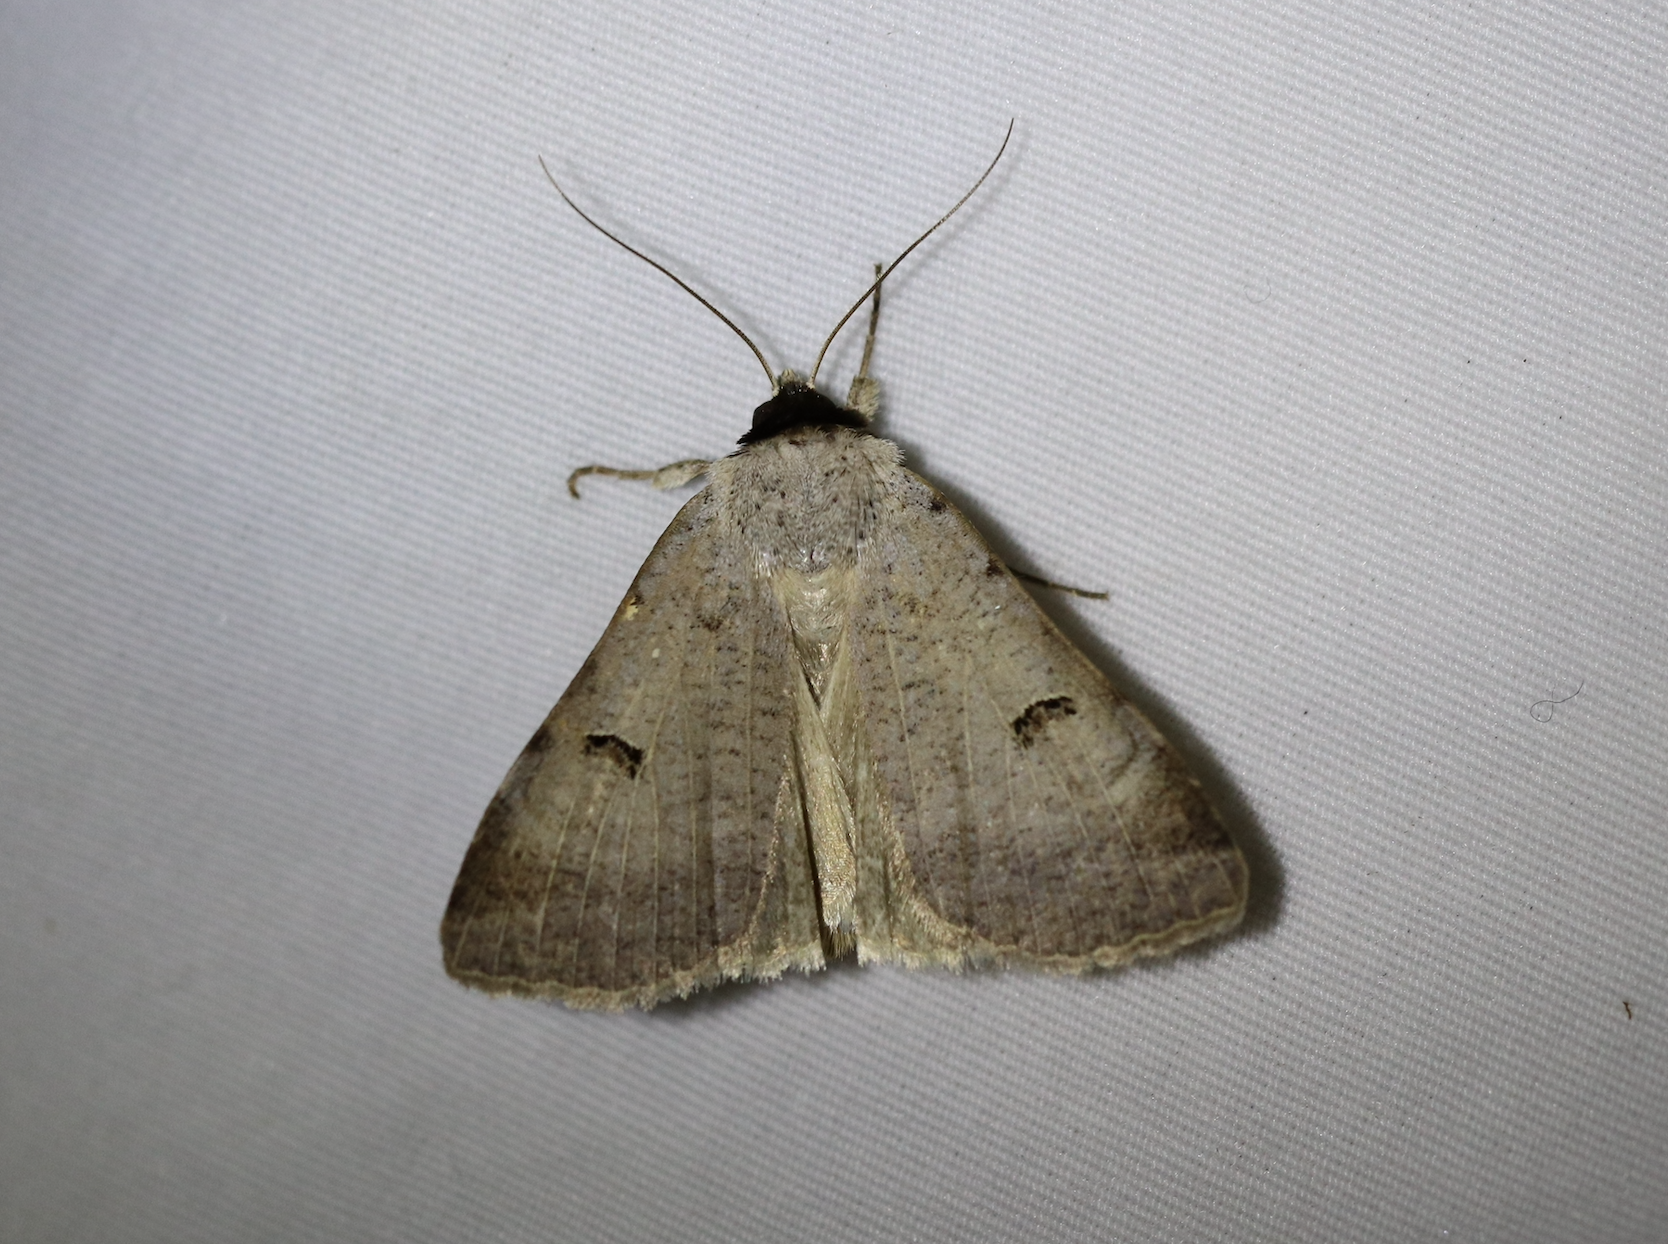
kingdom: Animalia
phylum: Arthropoda
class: Insecta
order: Lepidoptera
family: Erebidae
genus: Lygephila
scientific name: Lygephila craccae
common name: Scarce blackneck
